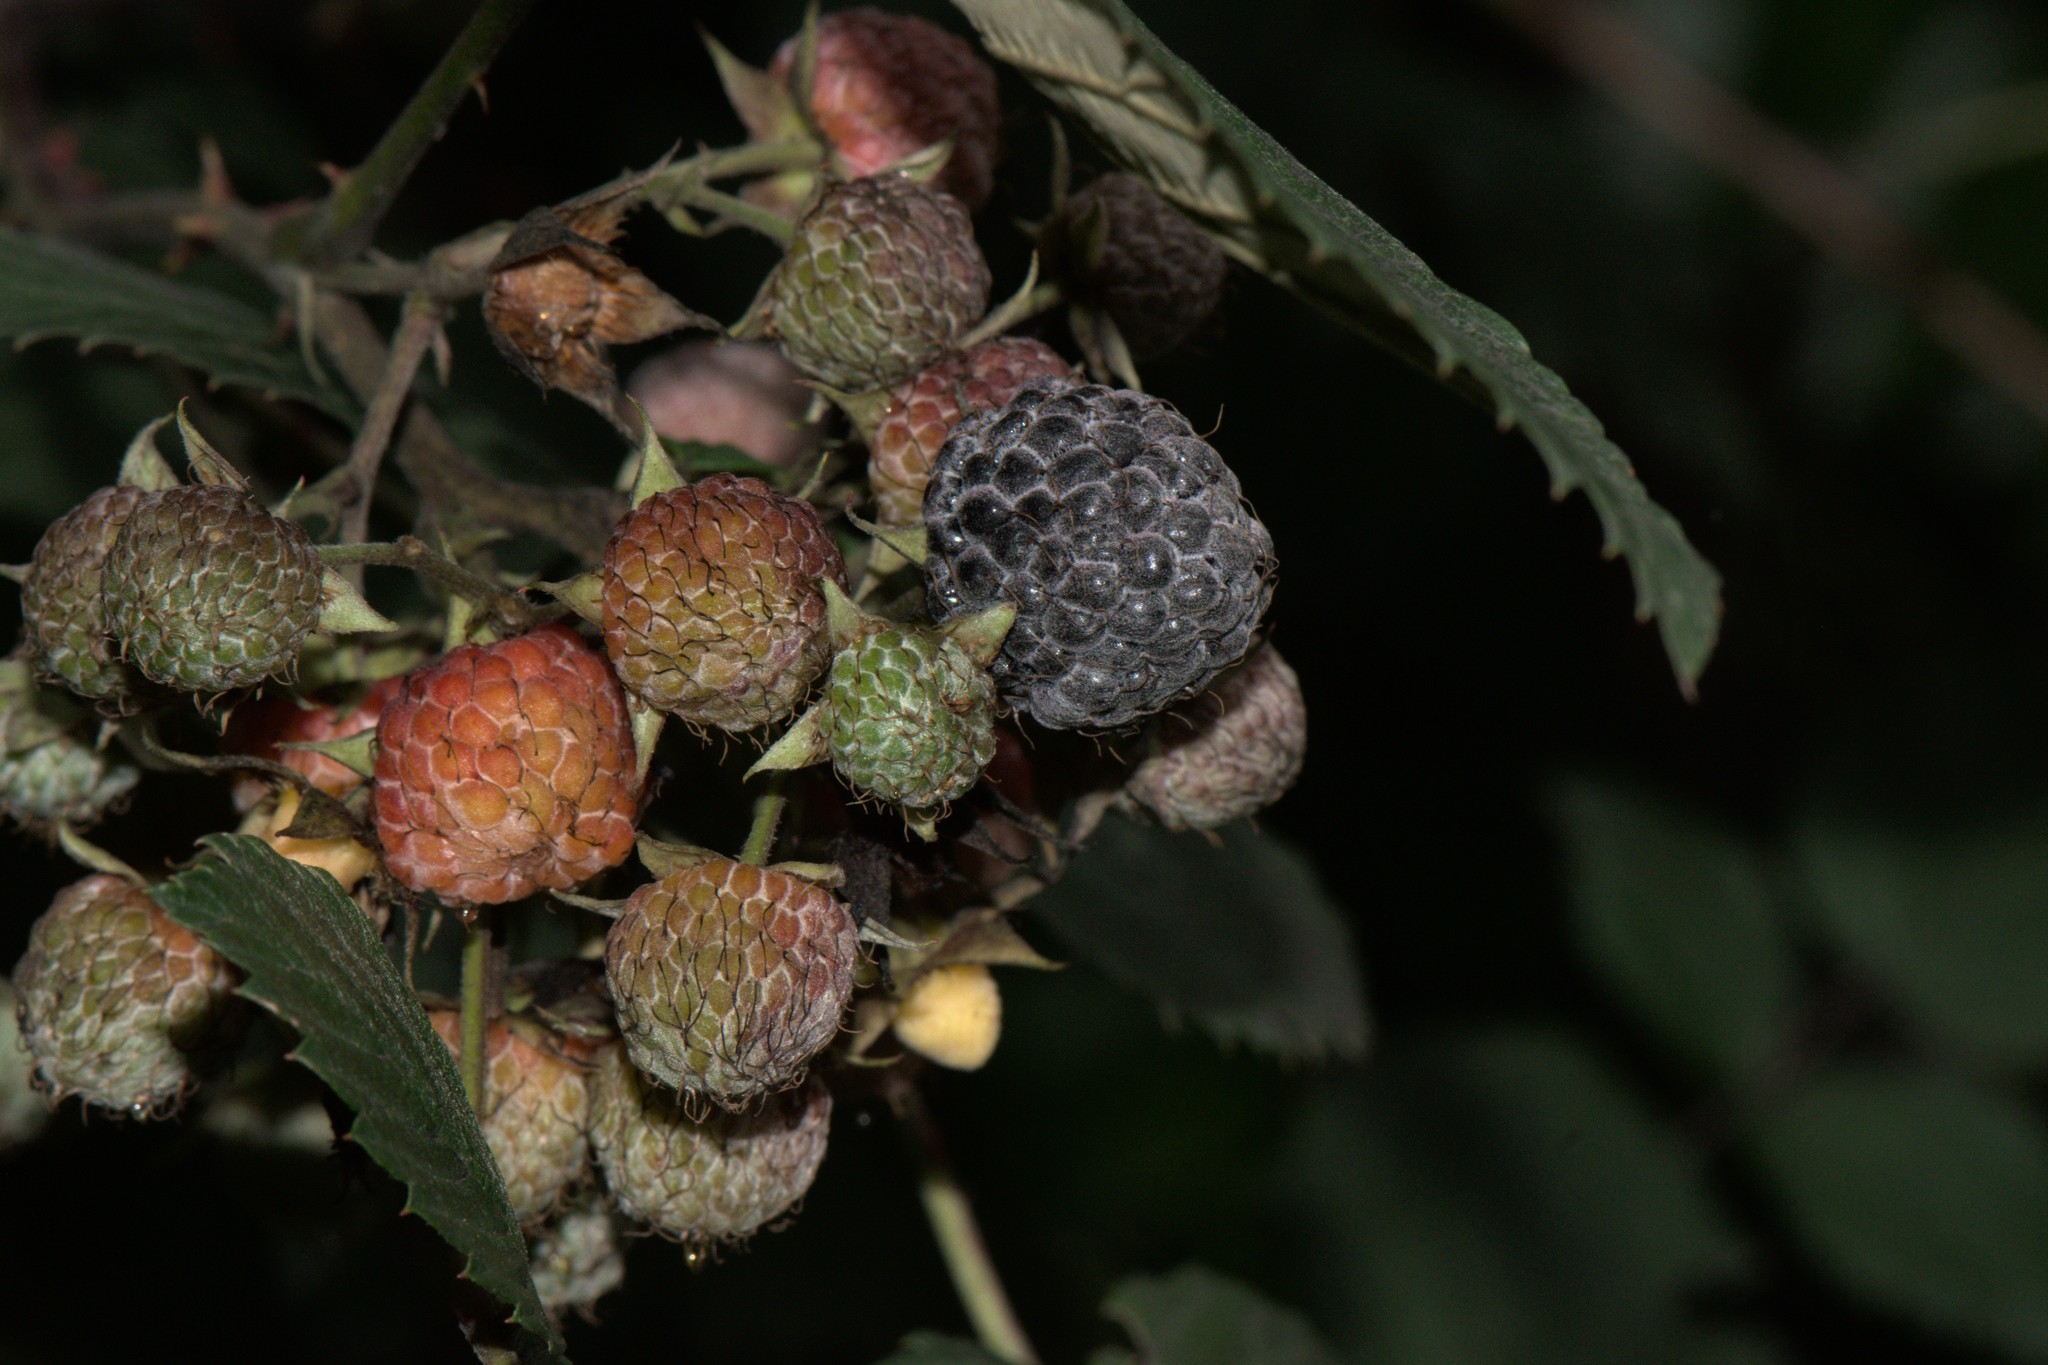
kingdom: Plantae
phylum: Tracheophyta
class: Magnoliopsida
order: Rosales
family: Rosaceae
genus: Rubus
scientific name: Rubus niveus
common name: Snowpeaks raspberry
